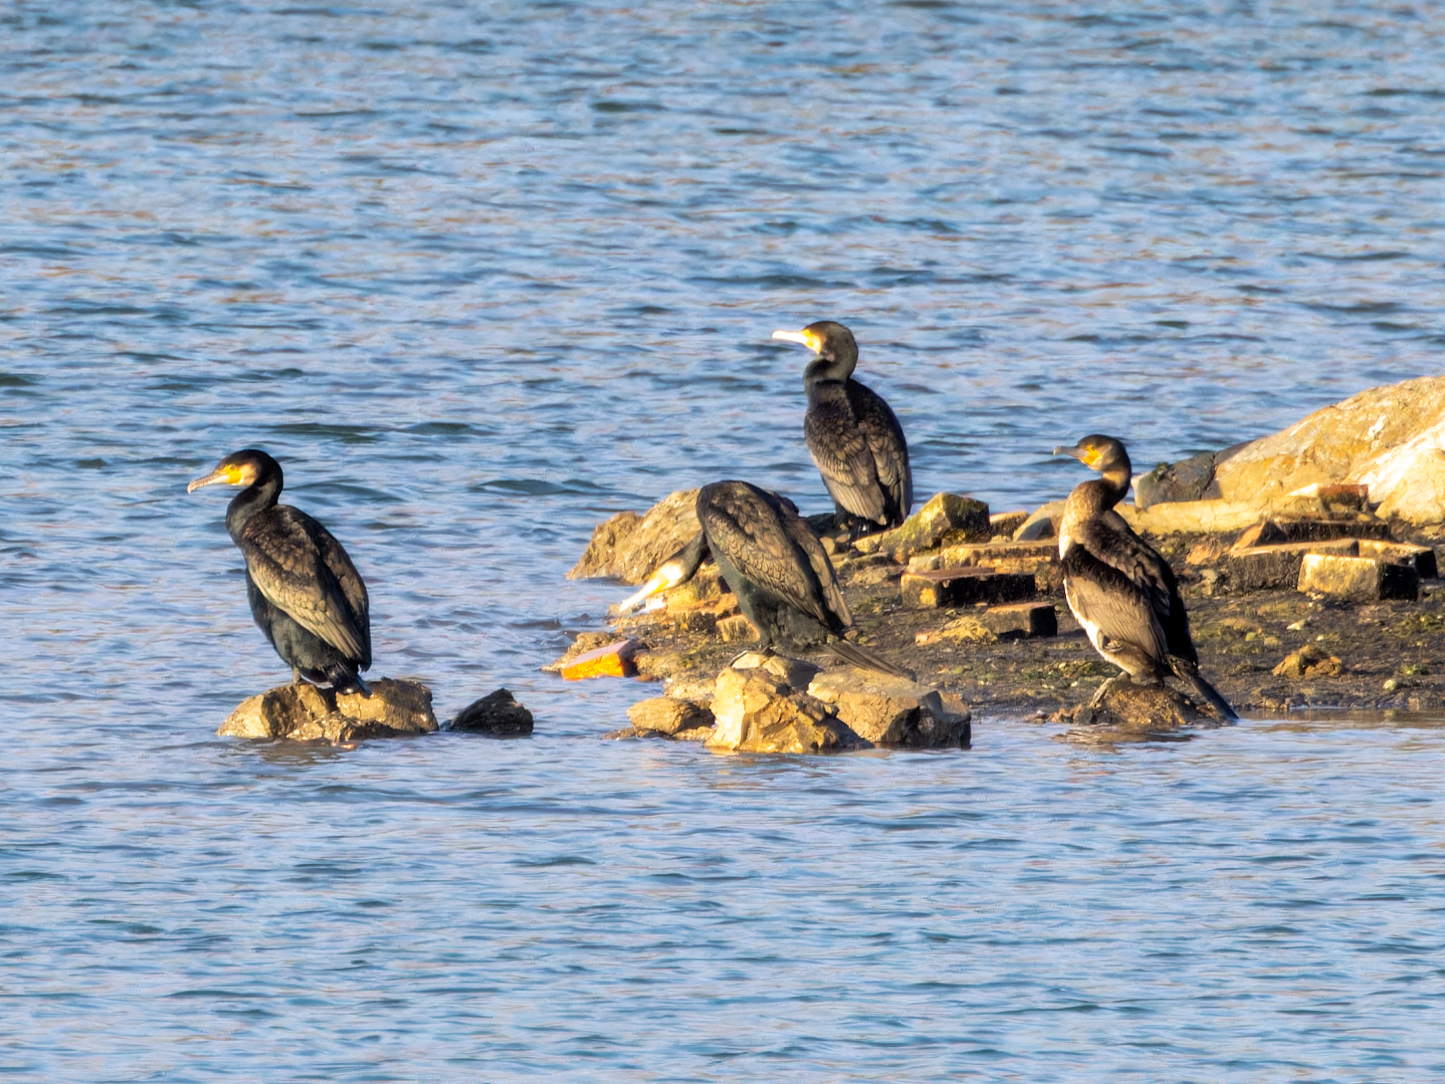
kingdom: Animalia
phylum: Chordata
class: Aves
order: Suliformes
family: Phalacrocoracidae
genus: Phalacrocorax
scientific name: Phalacrocorax carbo
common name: Great cormorant
